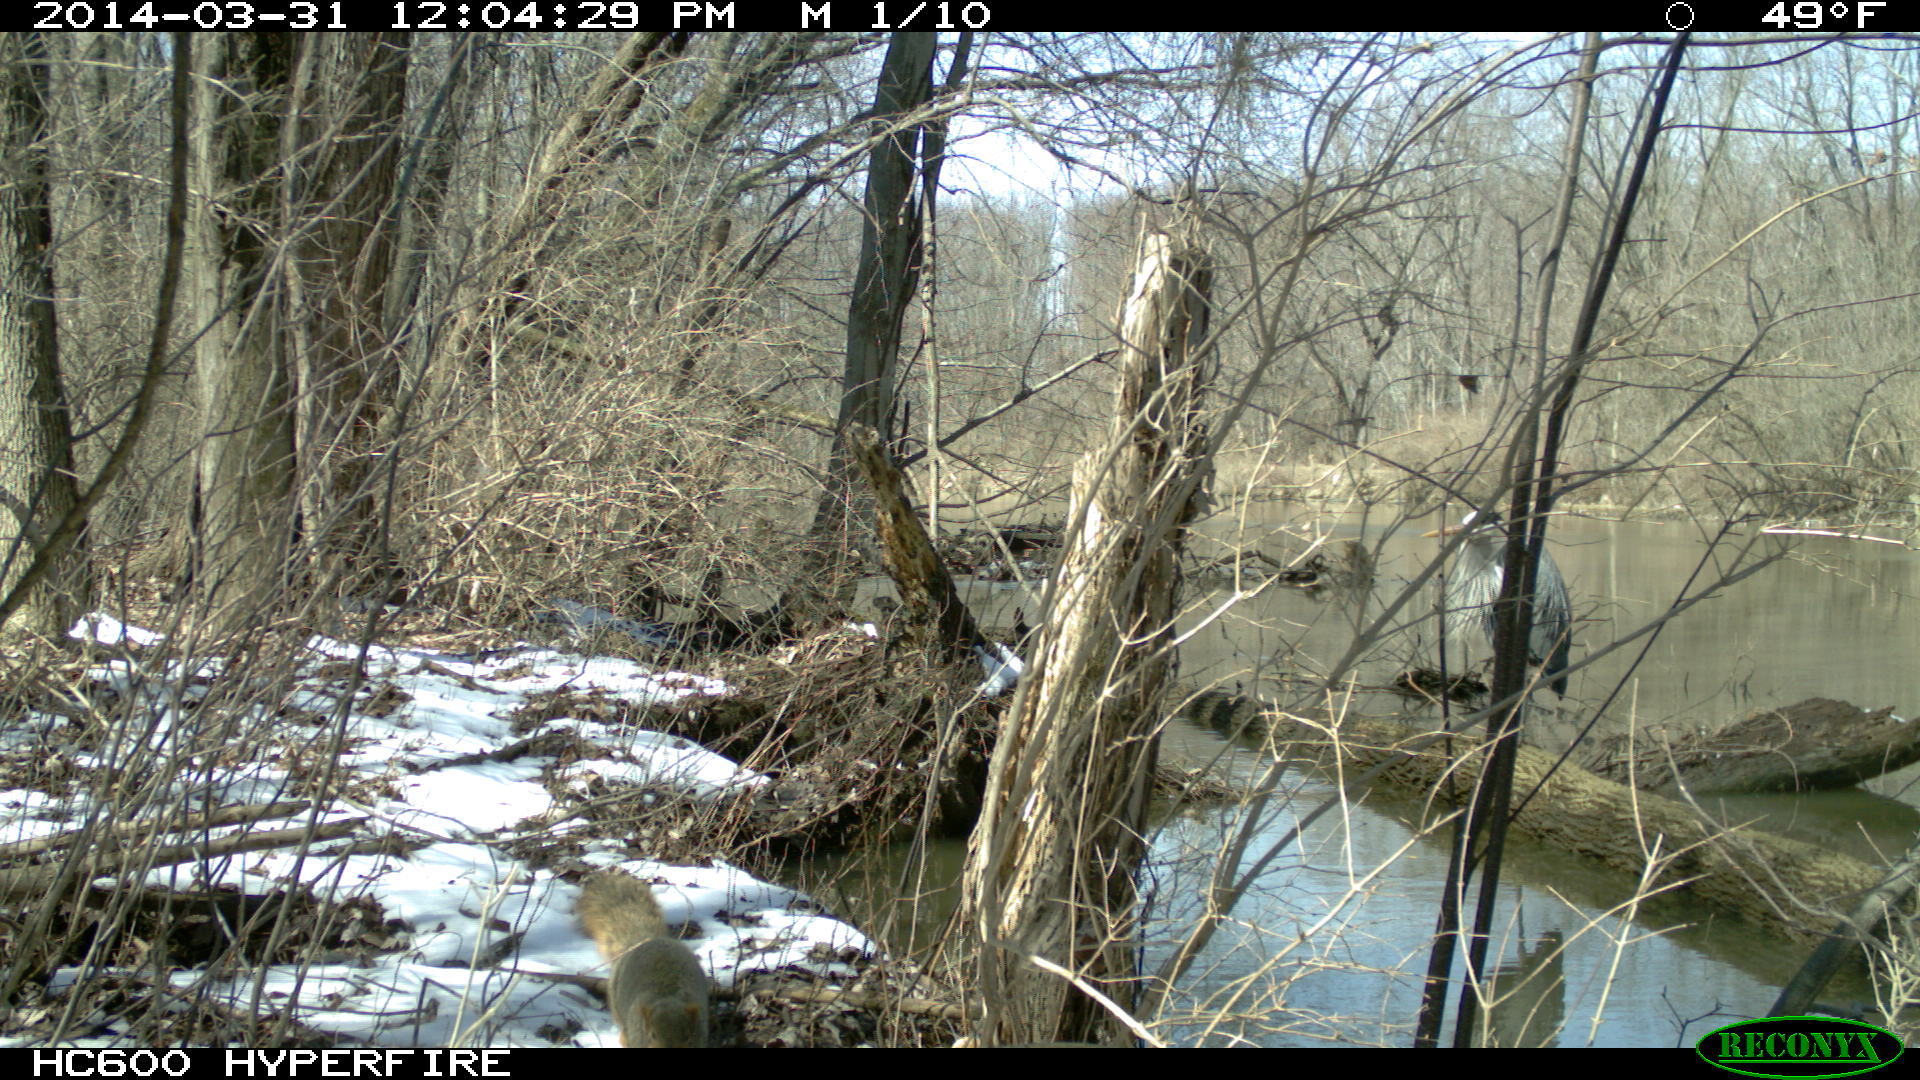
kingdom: Animalia
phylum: Chordata
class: Mammalia
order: Rodentia
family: Sciuridae
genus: Sciurus
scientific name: Sciurus niger
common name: Fox squirrel
